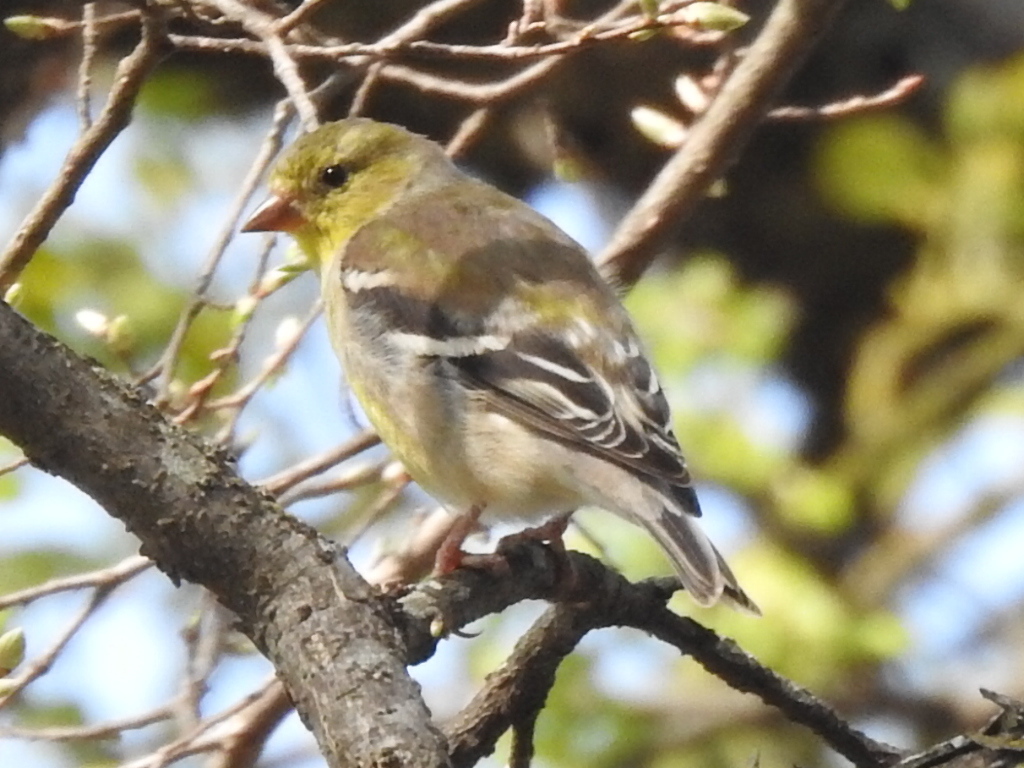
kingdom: Animalia
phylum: Chordata
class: Aves
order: Passeriformes
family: Fringillidae
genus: Spinus
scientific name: Spinus tristis
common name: American goldfinch
